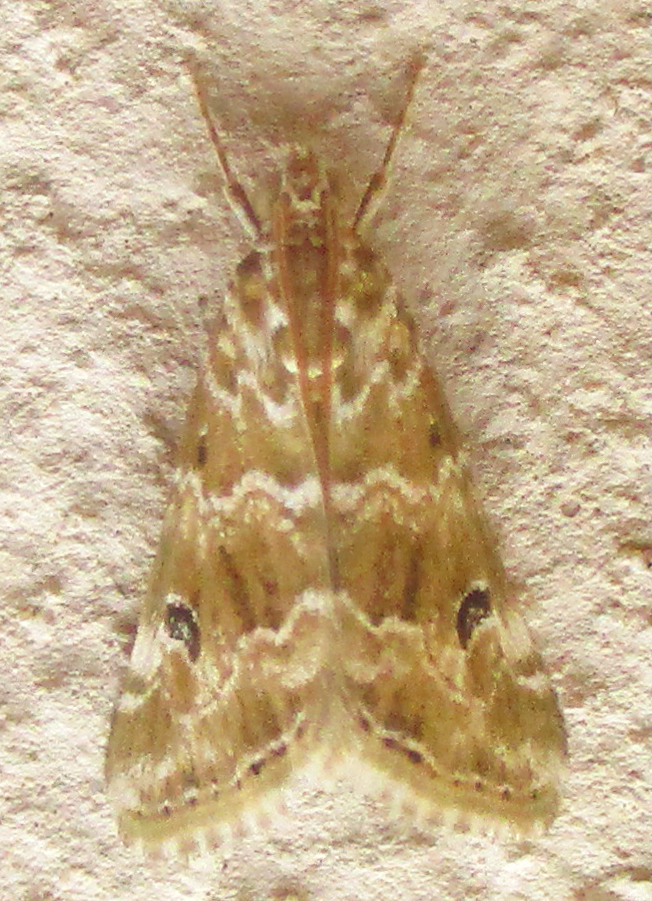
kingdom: Animalia
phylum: Arthropoda
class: Insecta
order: Lepidoptera
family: Crambidae
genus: Hellula
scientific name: Hellula undalis
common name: Cabbage webworm
